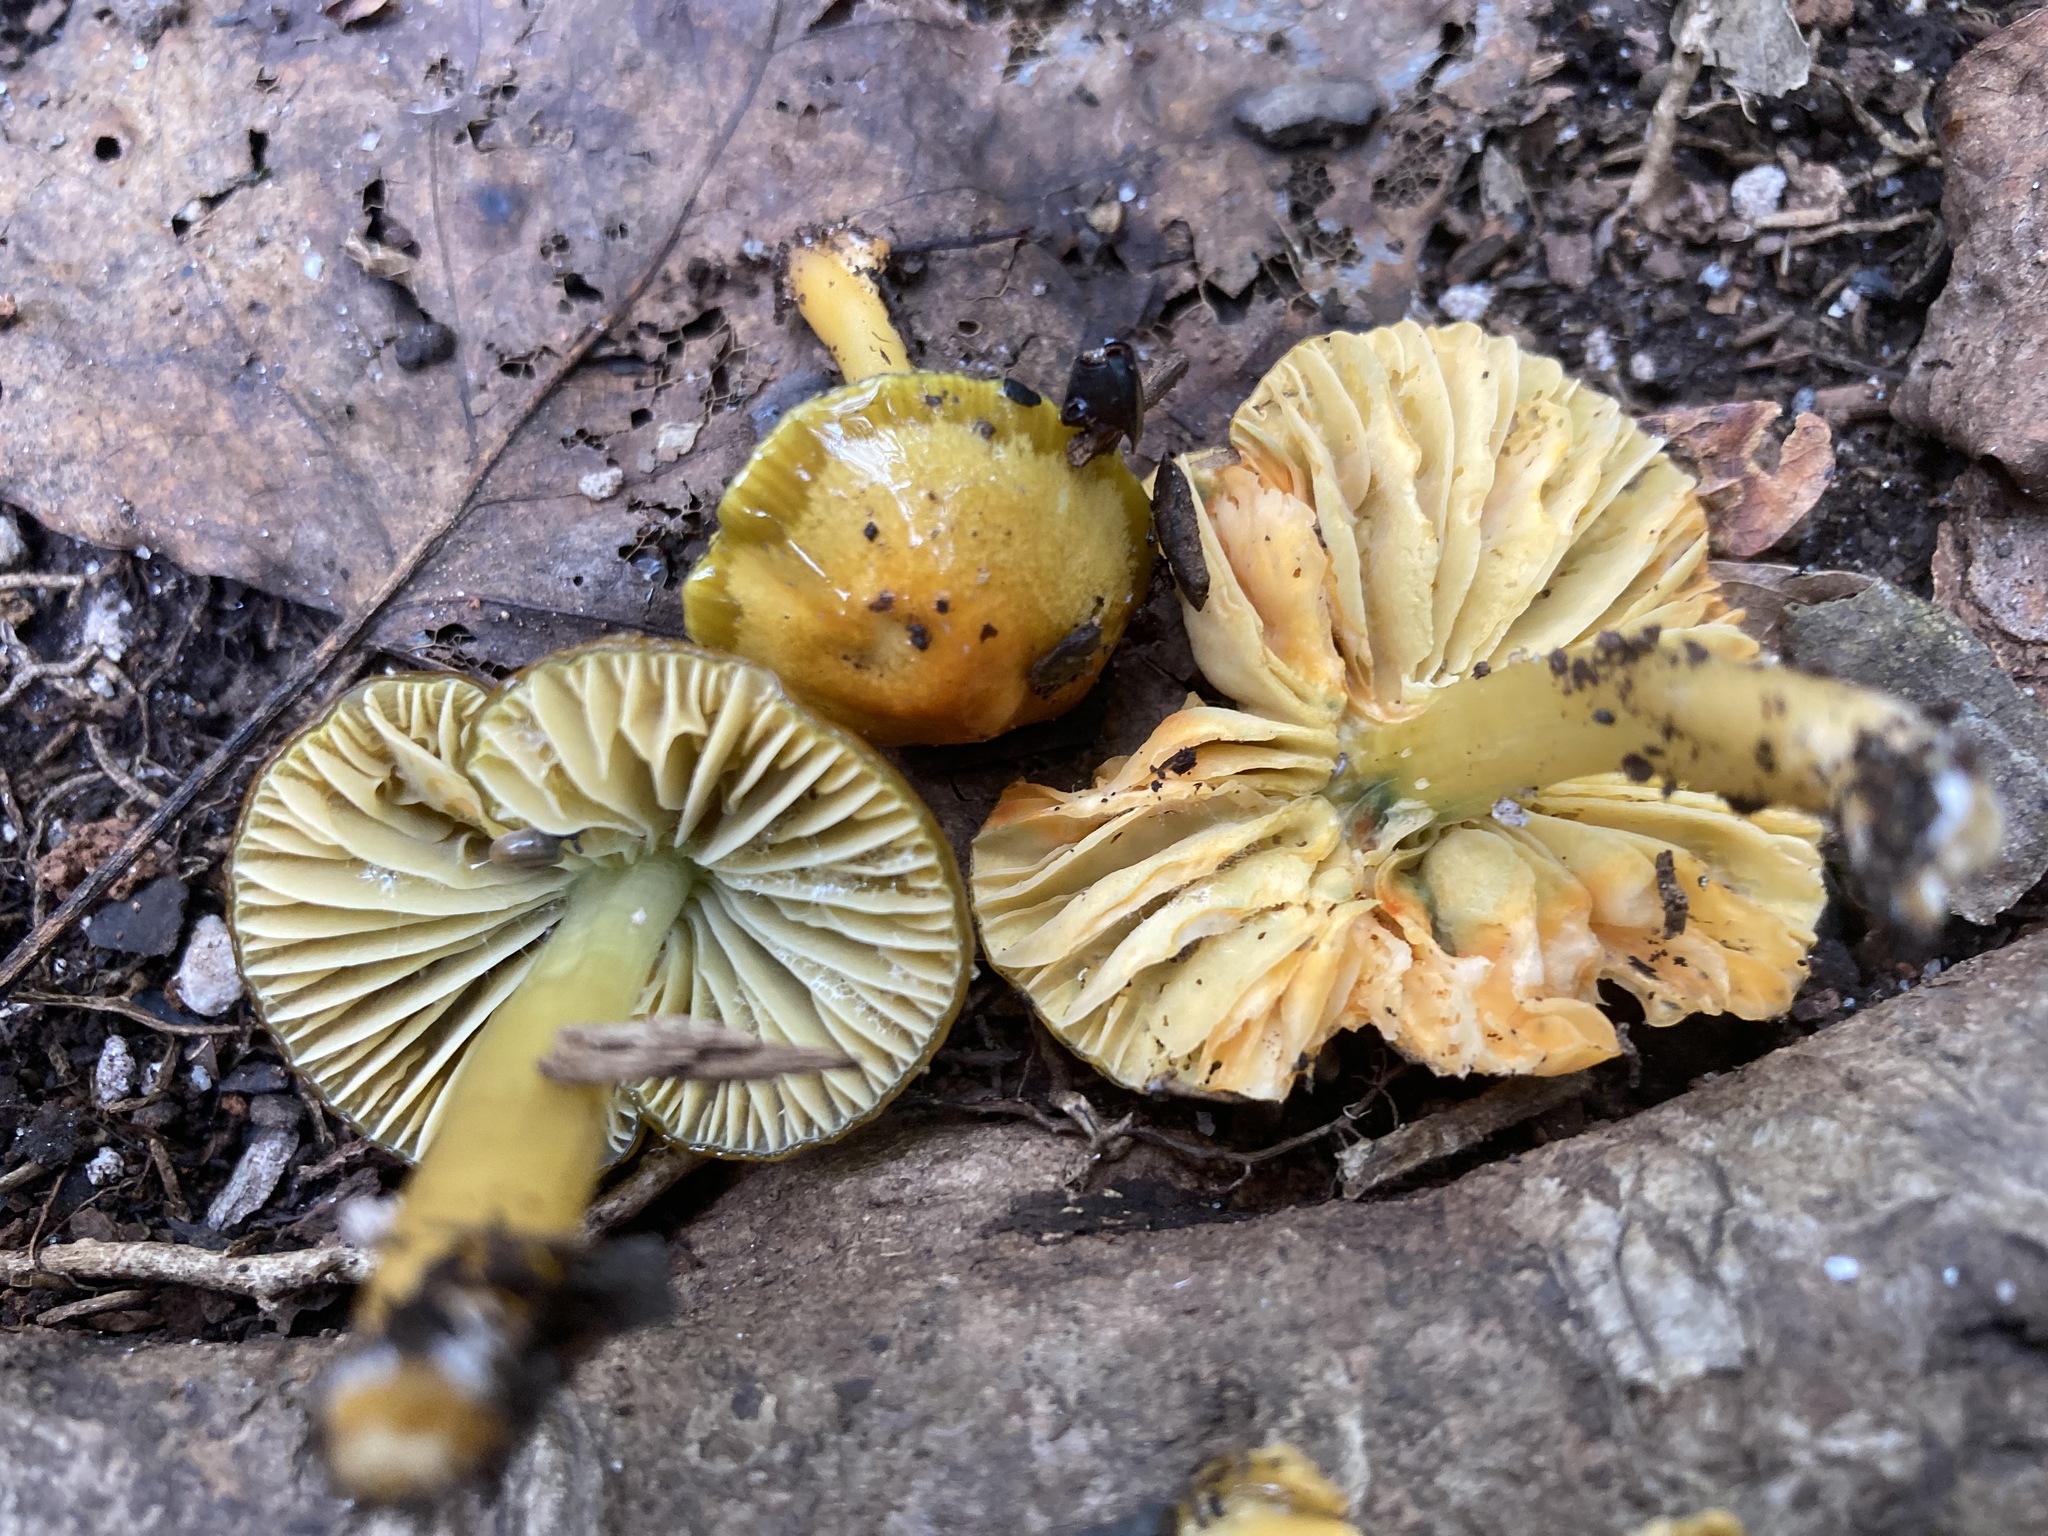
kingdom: Fungi
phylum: Basidiomycota
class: Agaricomycetes
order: Agaricales
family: Hygrophoraceae
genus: Gliophorus
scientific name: Gliophorus psittacinus
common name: Parrot wax-cap
